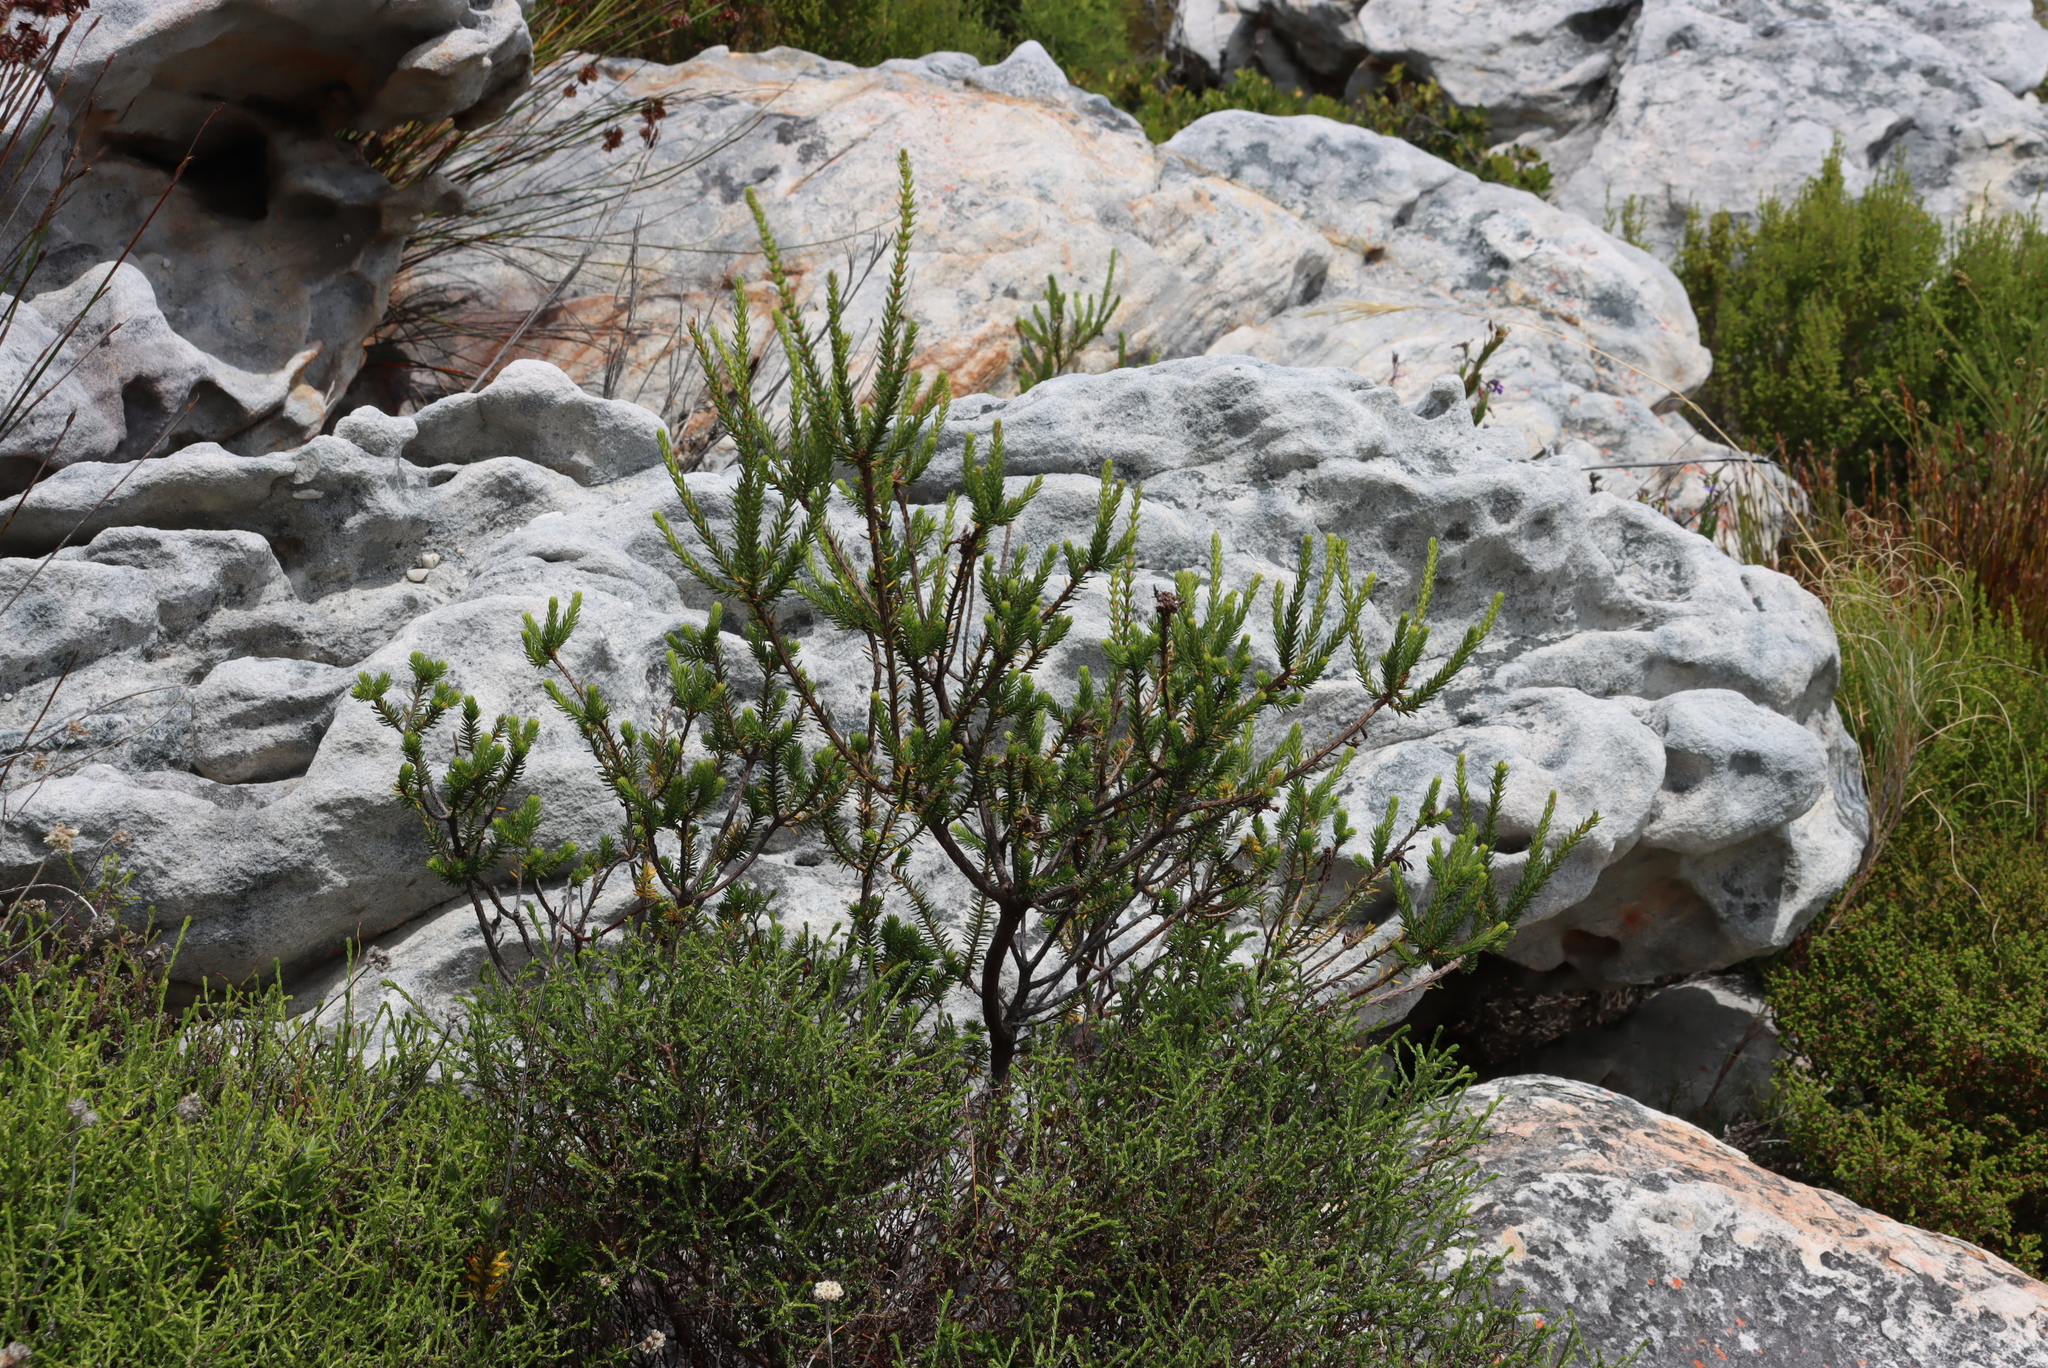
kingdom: Plantae
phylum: Tracheophyta
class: Magnoliopsida
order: Ericales
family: Ericaceae
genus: Erica
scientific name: Erica mammosa
